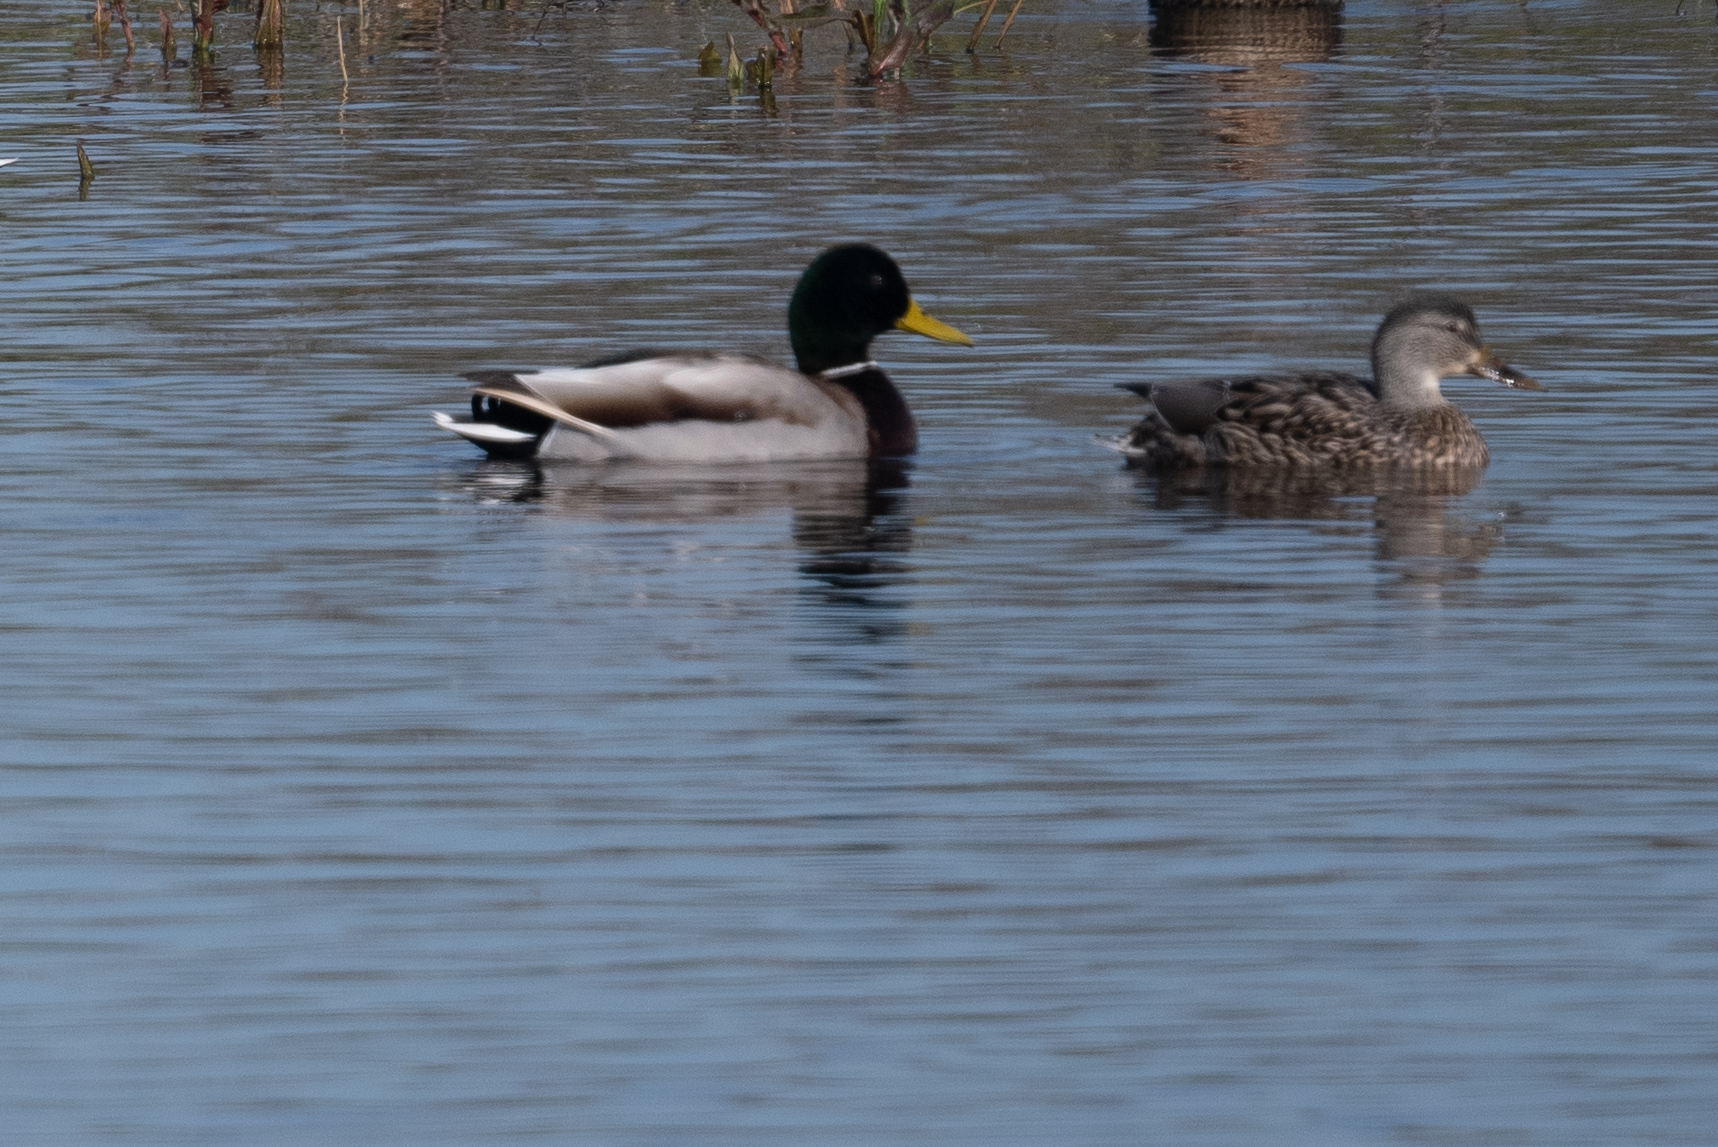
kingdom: Animalia
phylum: Chordata
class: Aves
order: Anseriformes
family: Anatidae
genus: Anas
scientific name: Anas platyrhynchos
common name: Mallard
